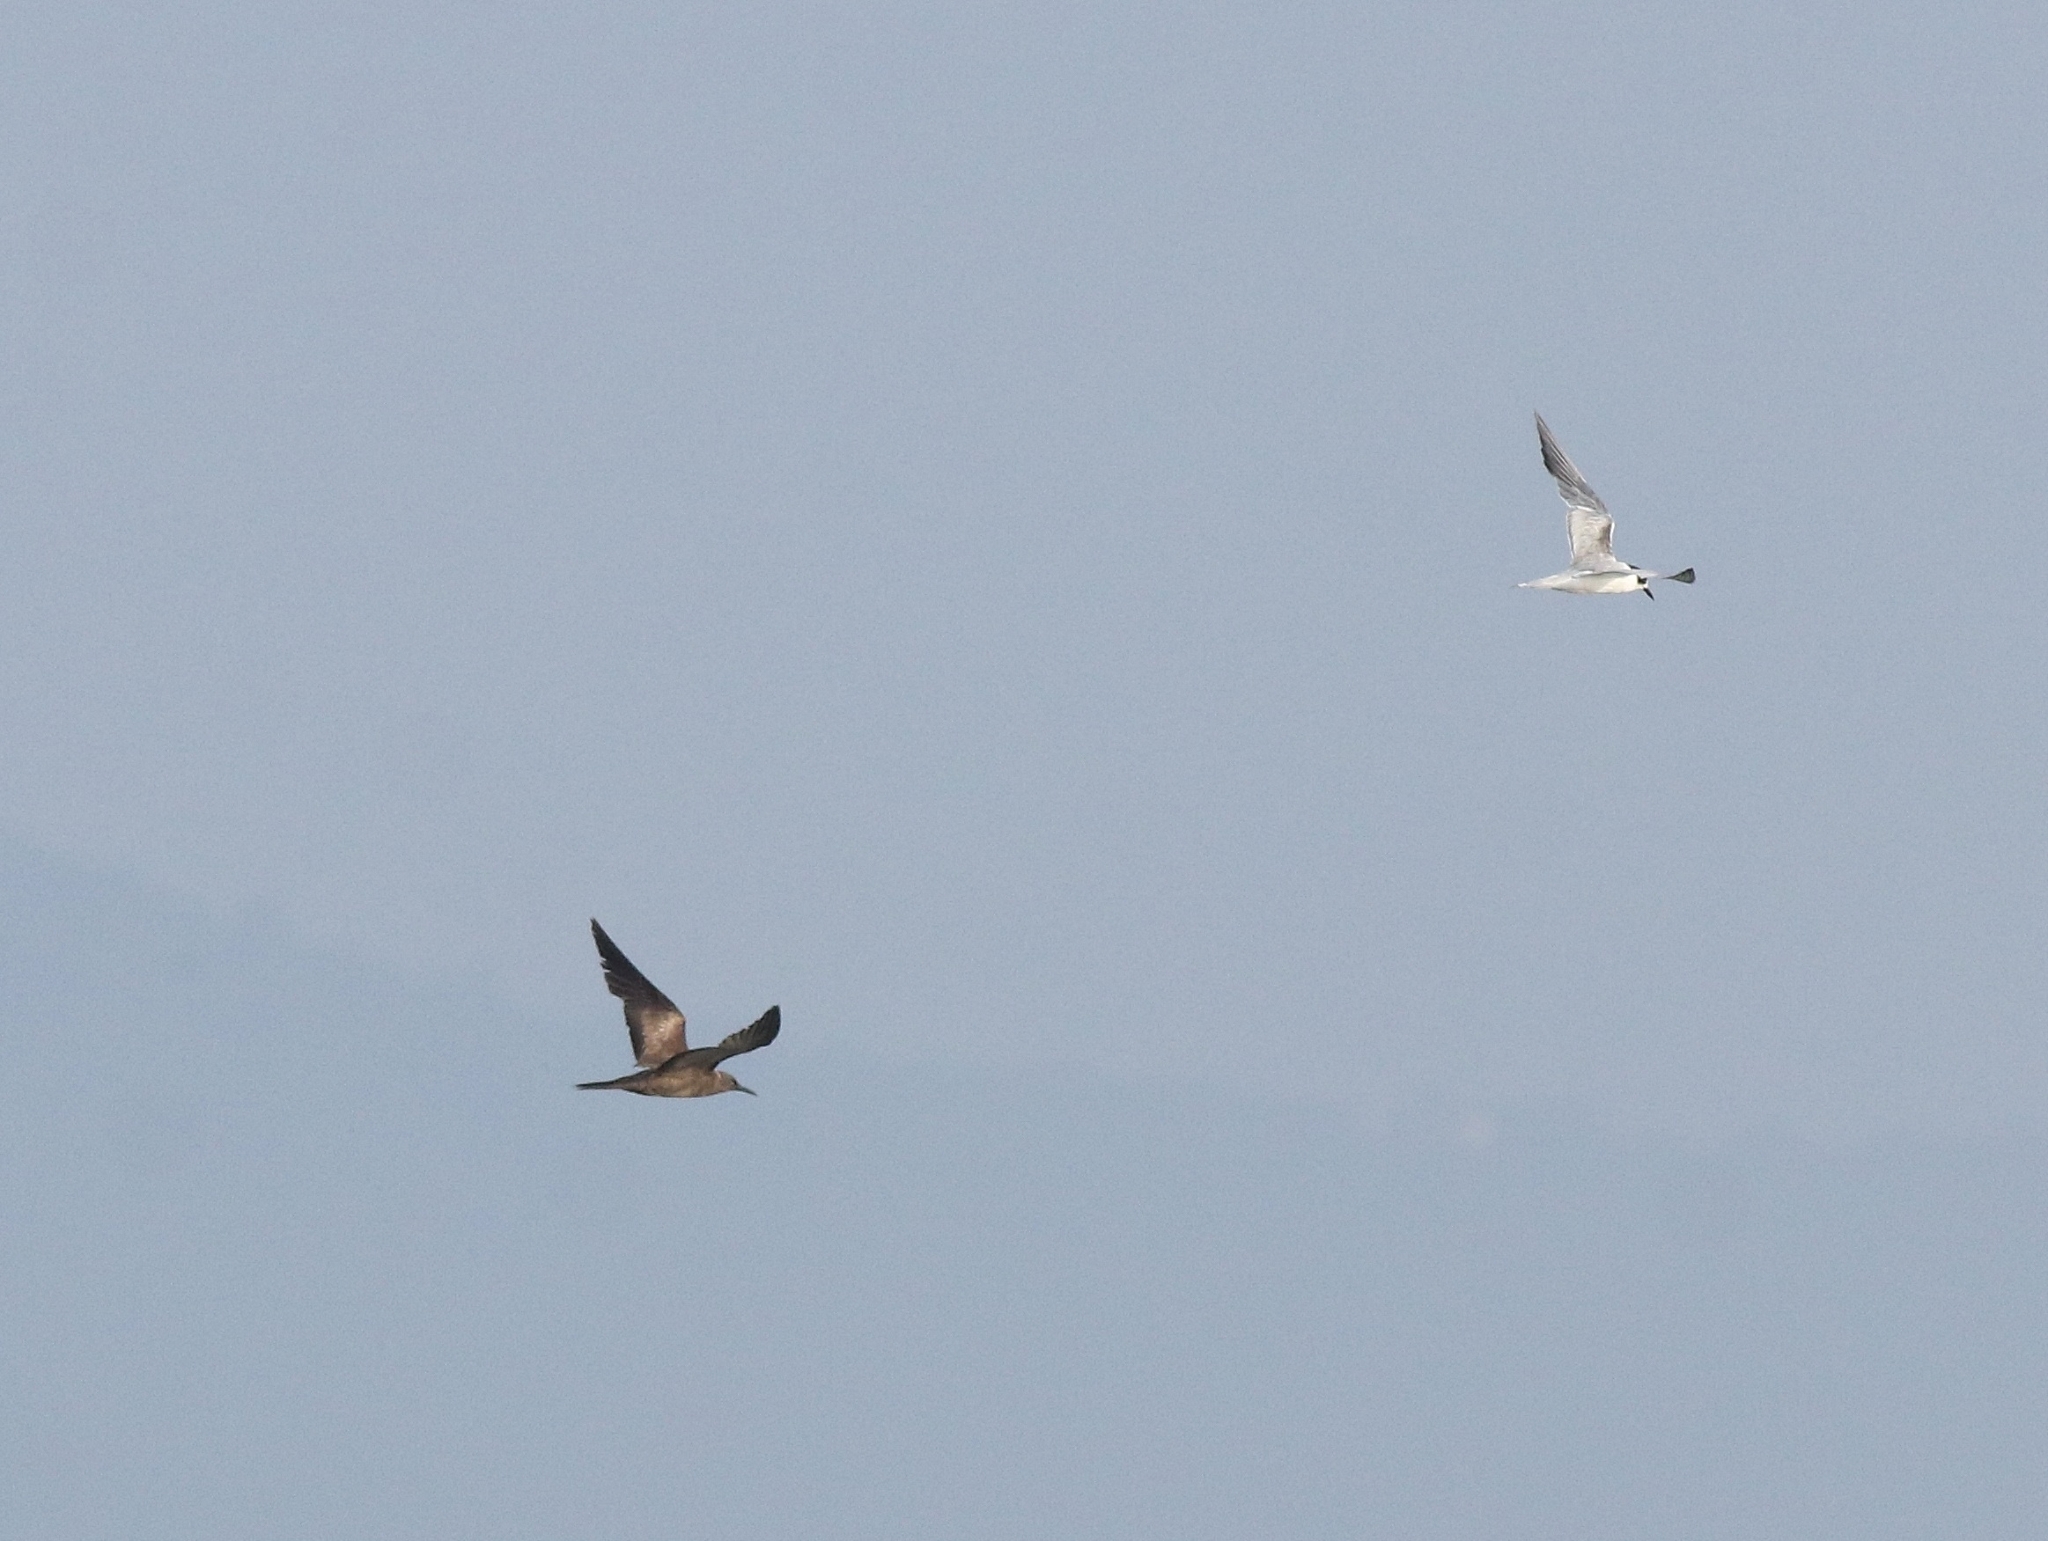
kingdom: Animalia
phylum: Chordata
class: Aves
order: Charadriiformes
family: Laridae
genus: Sterna
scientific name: Sterna hirundo
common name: Common tern
